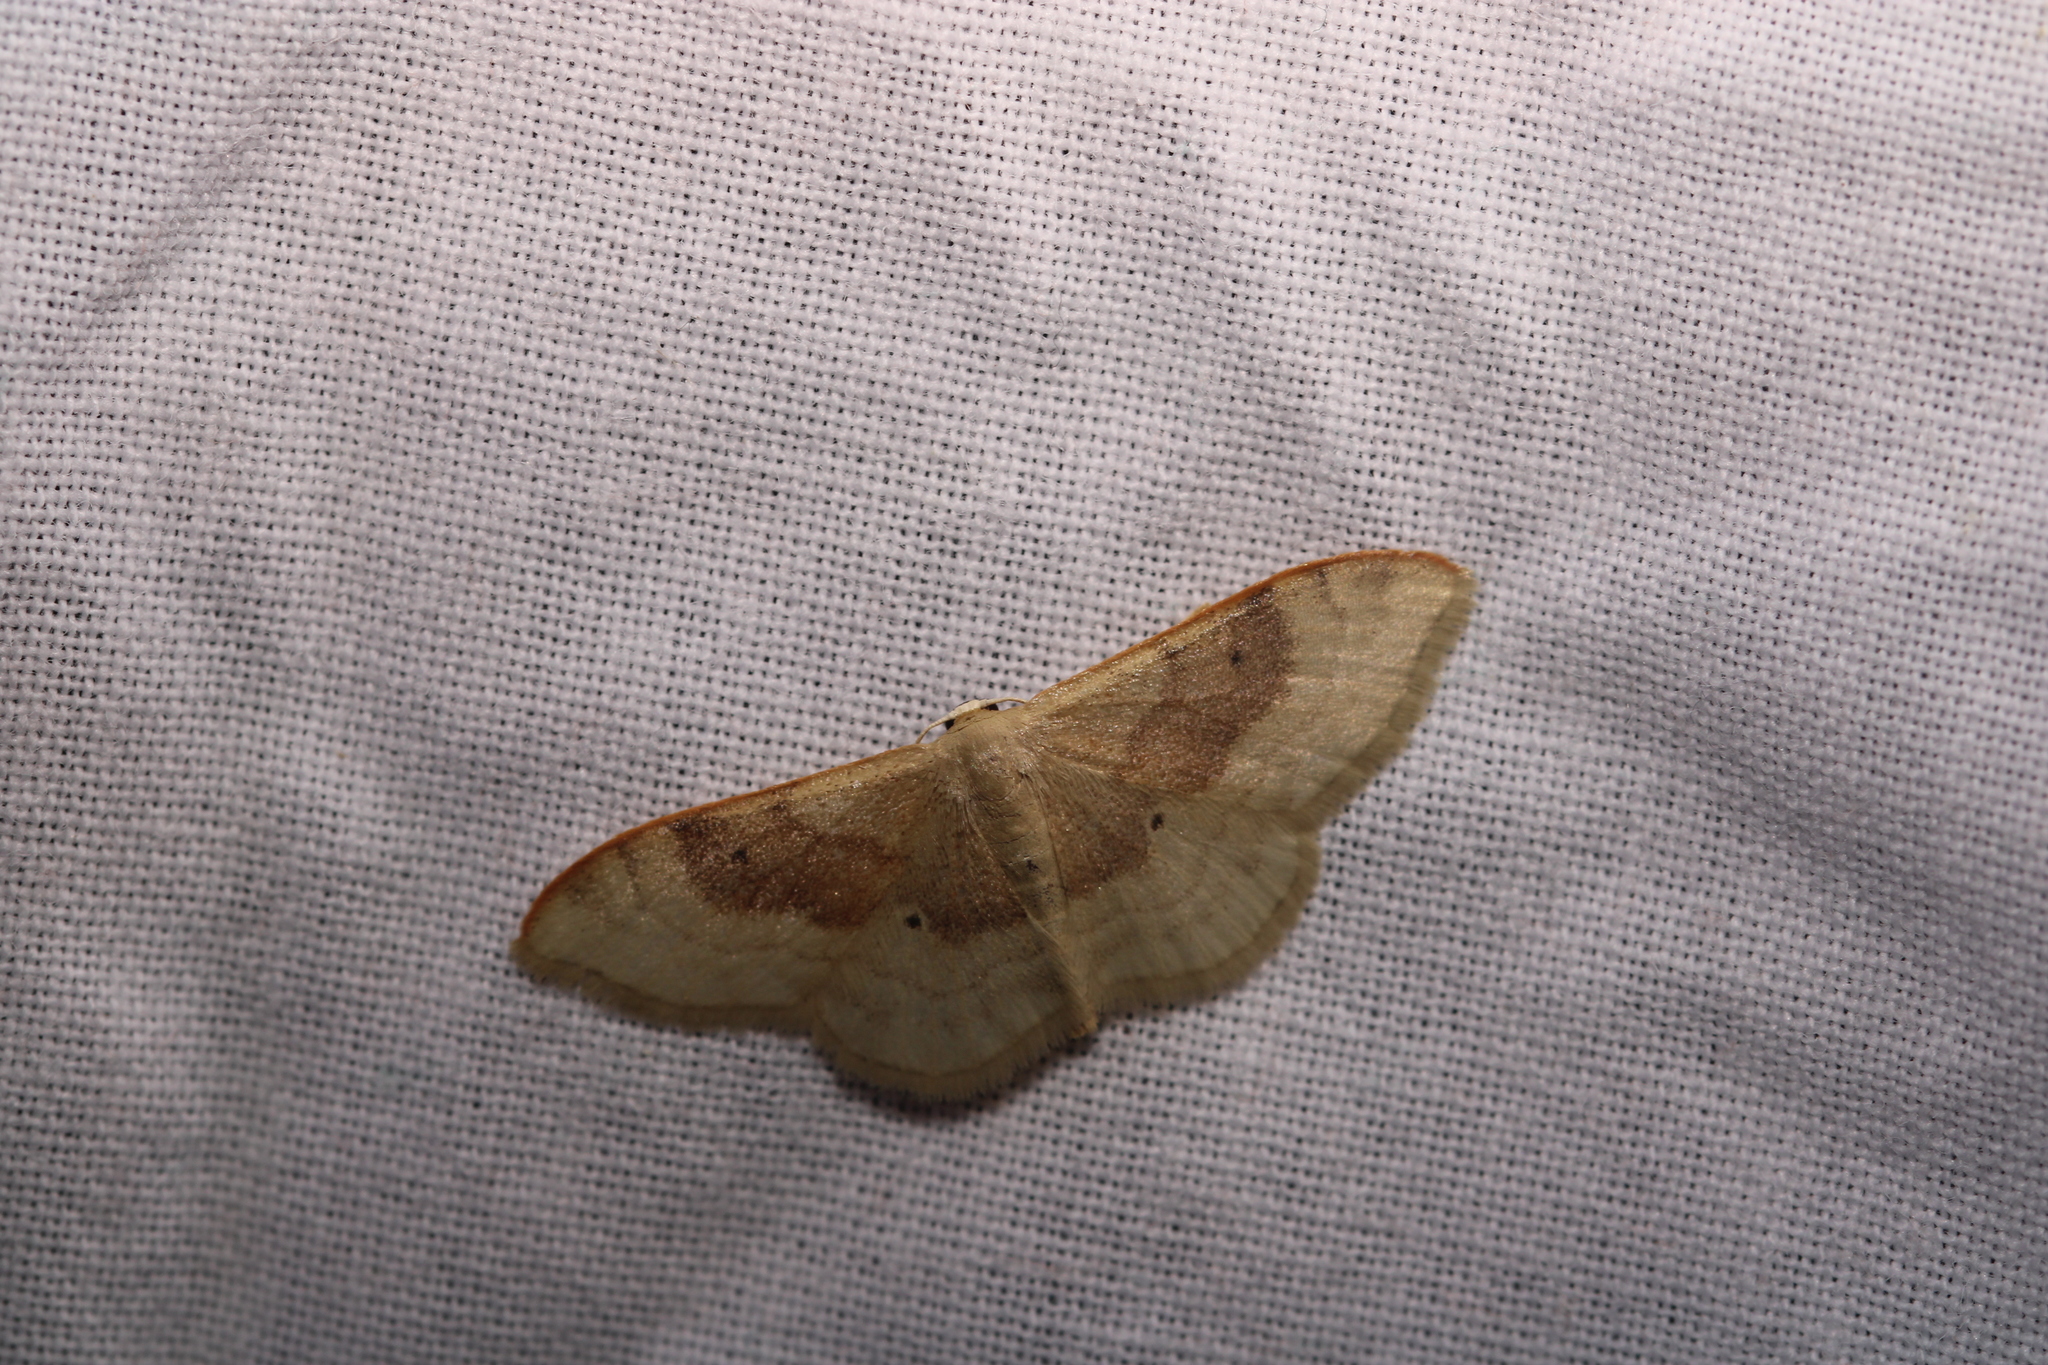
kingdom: Animalia
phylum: Arthropoda
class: Insecta
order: Lepidoptera
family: Geometridae
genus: Idaea
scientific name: Idaea degeneraria
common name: Portland ribbon wave
